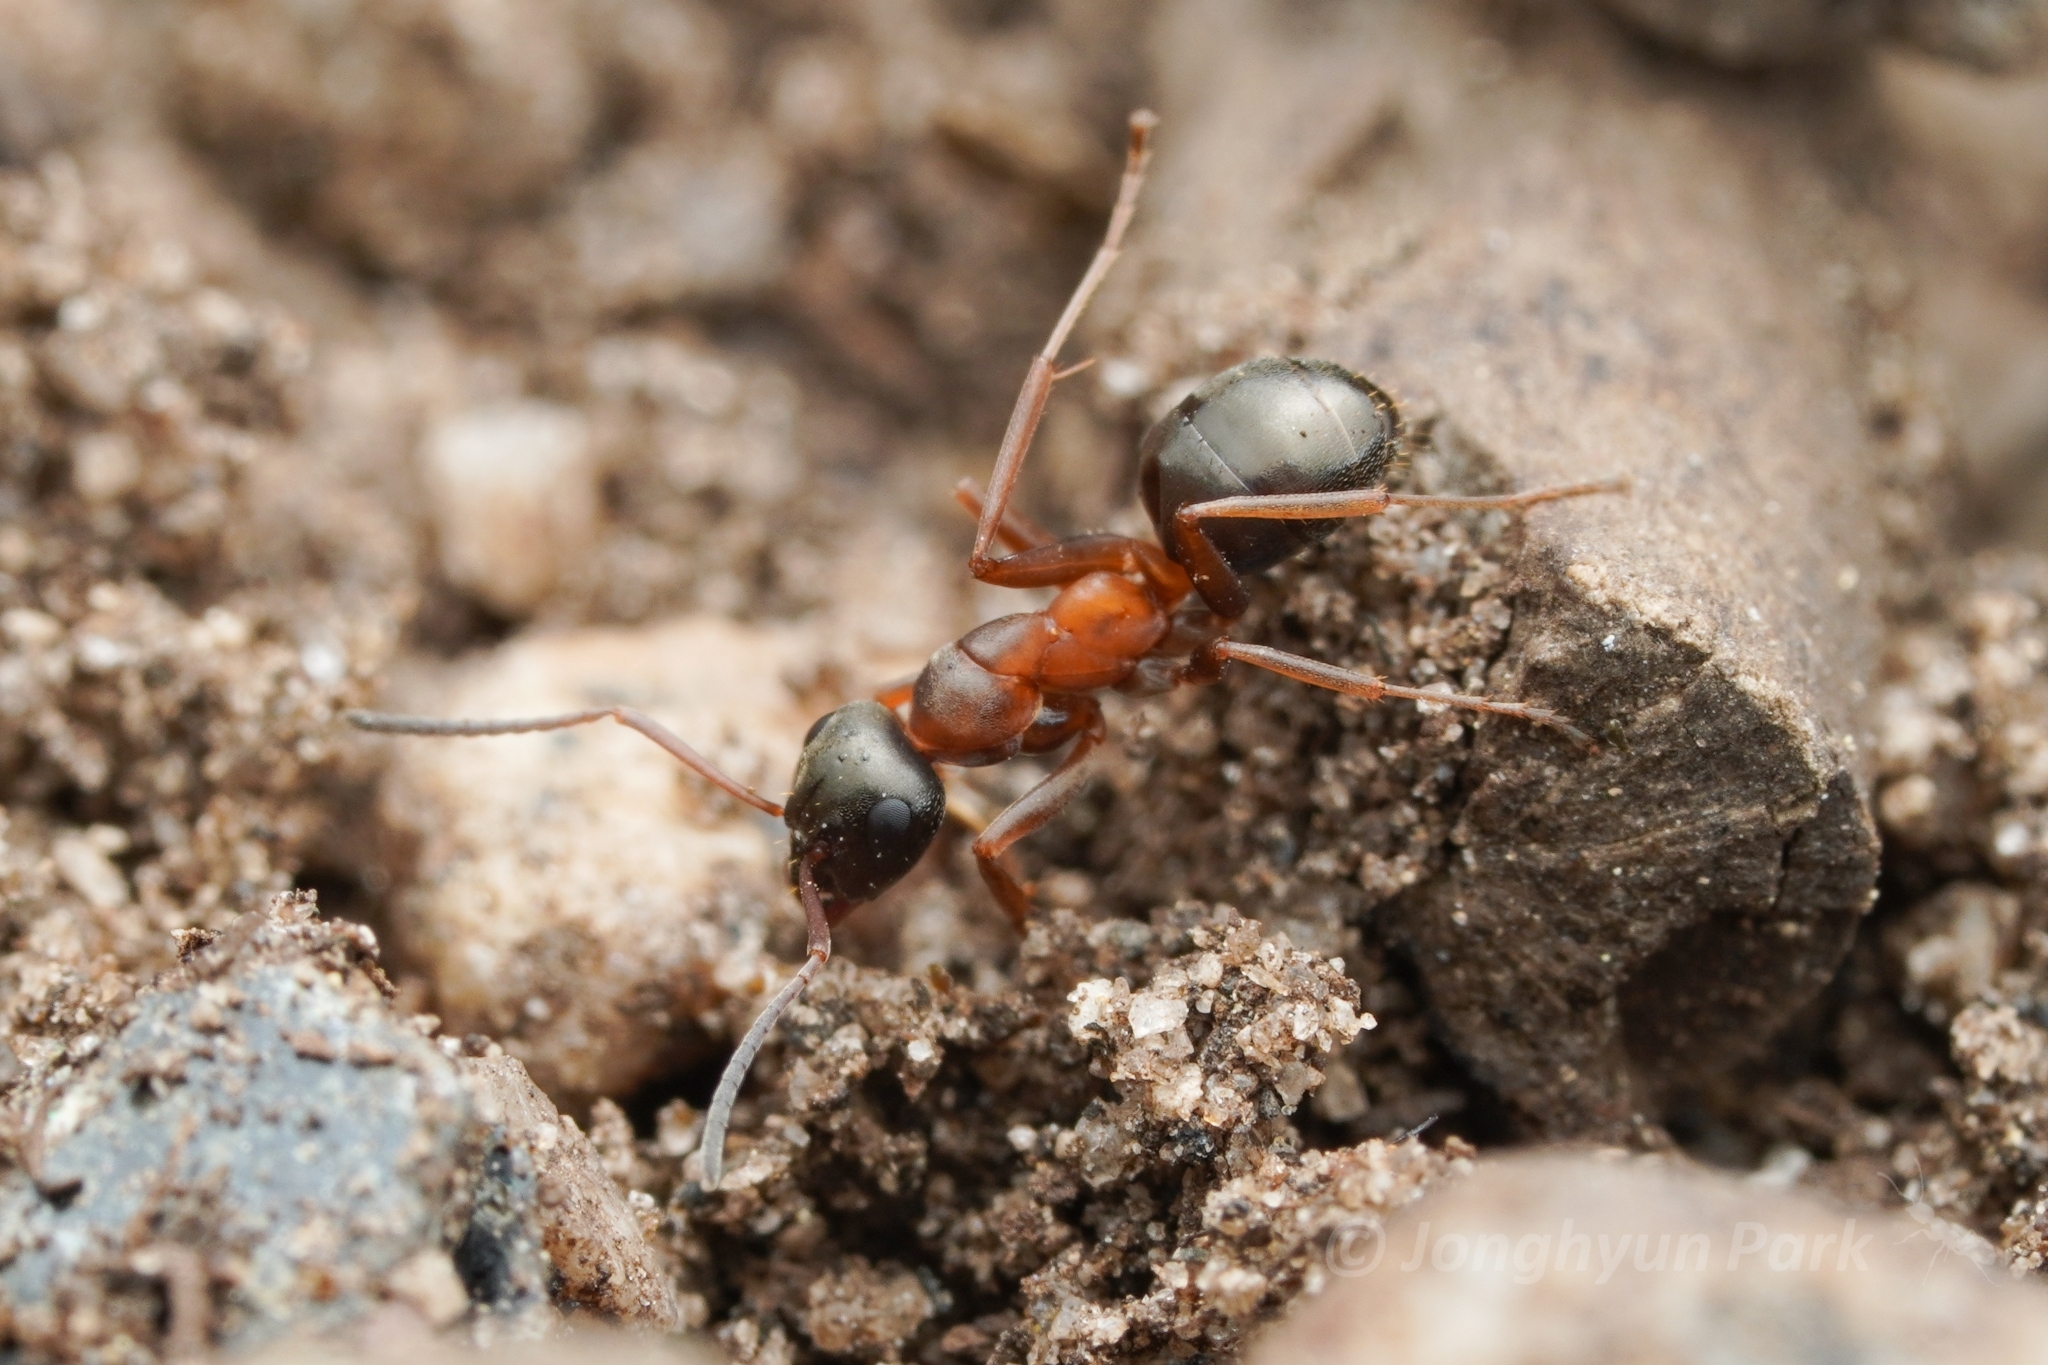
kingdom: Animalia
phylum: Arthropoda
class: Insecta
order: Hymenoptera
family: Formicidae
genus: Formica
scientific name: Formica neorufibarbis
